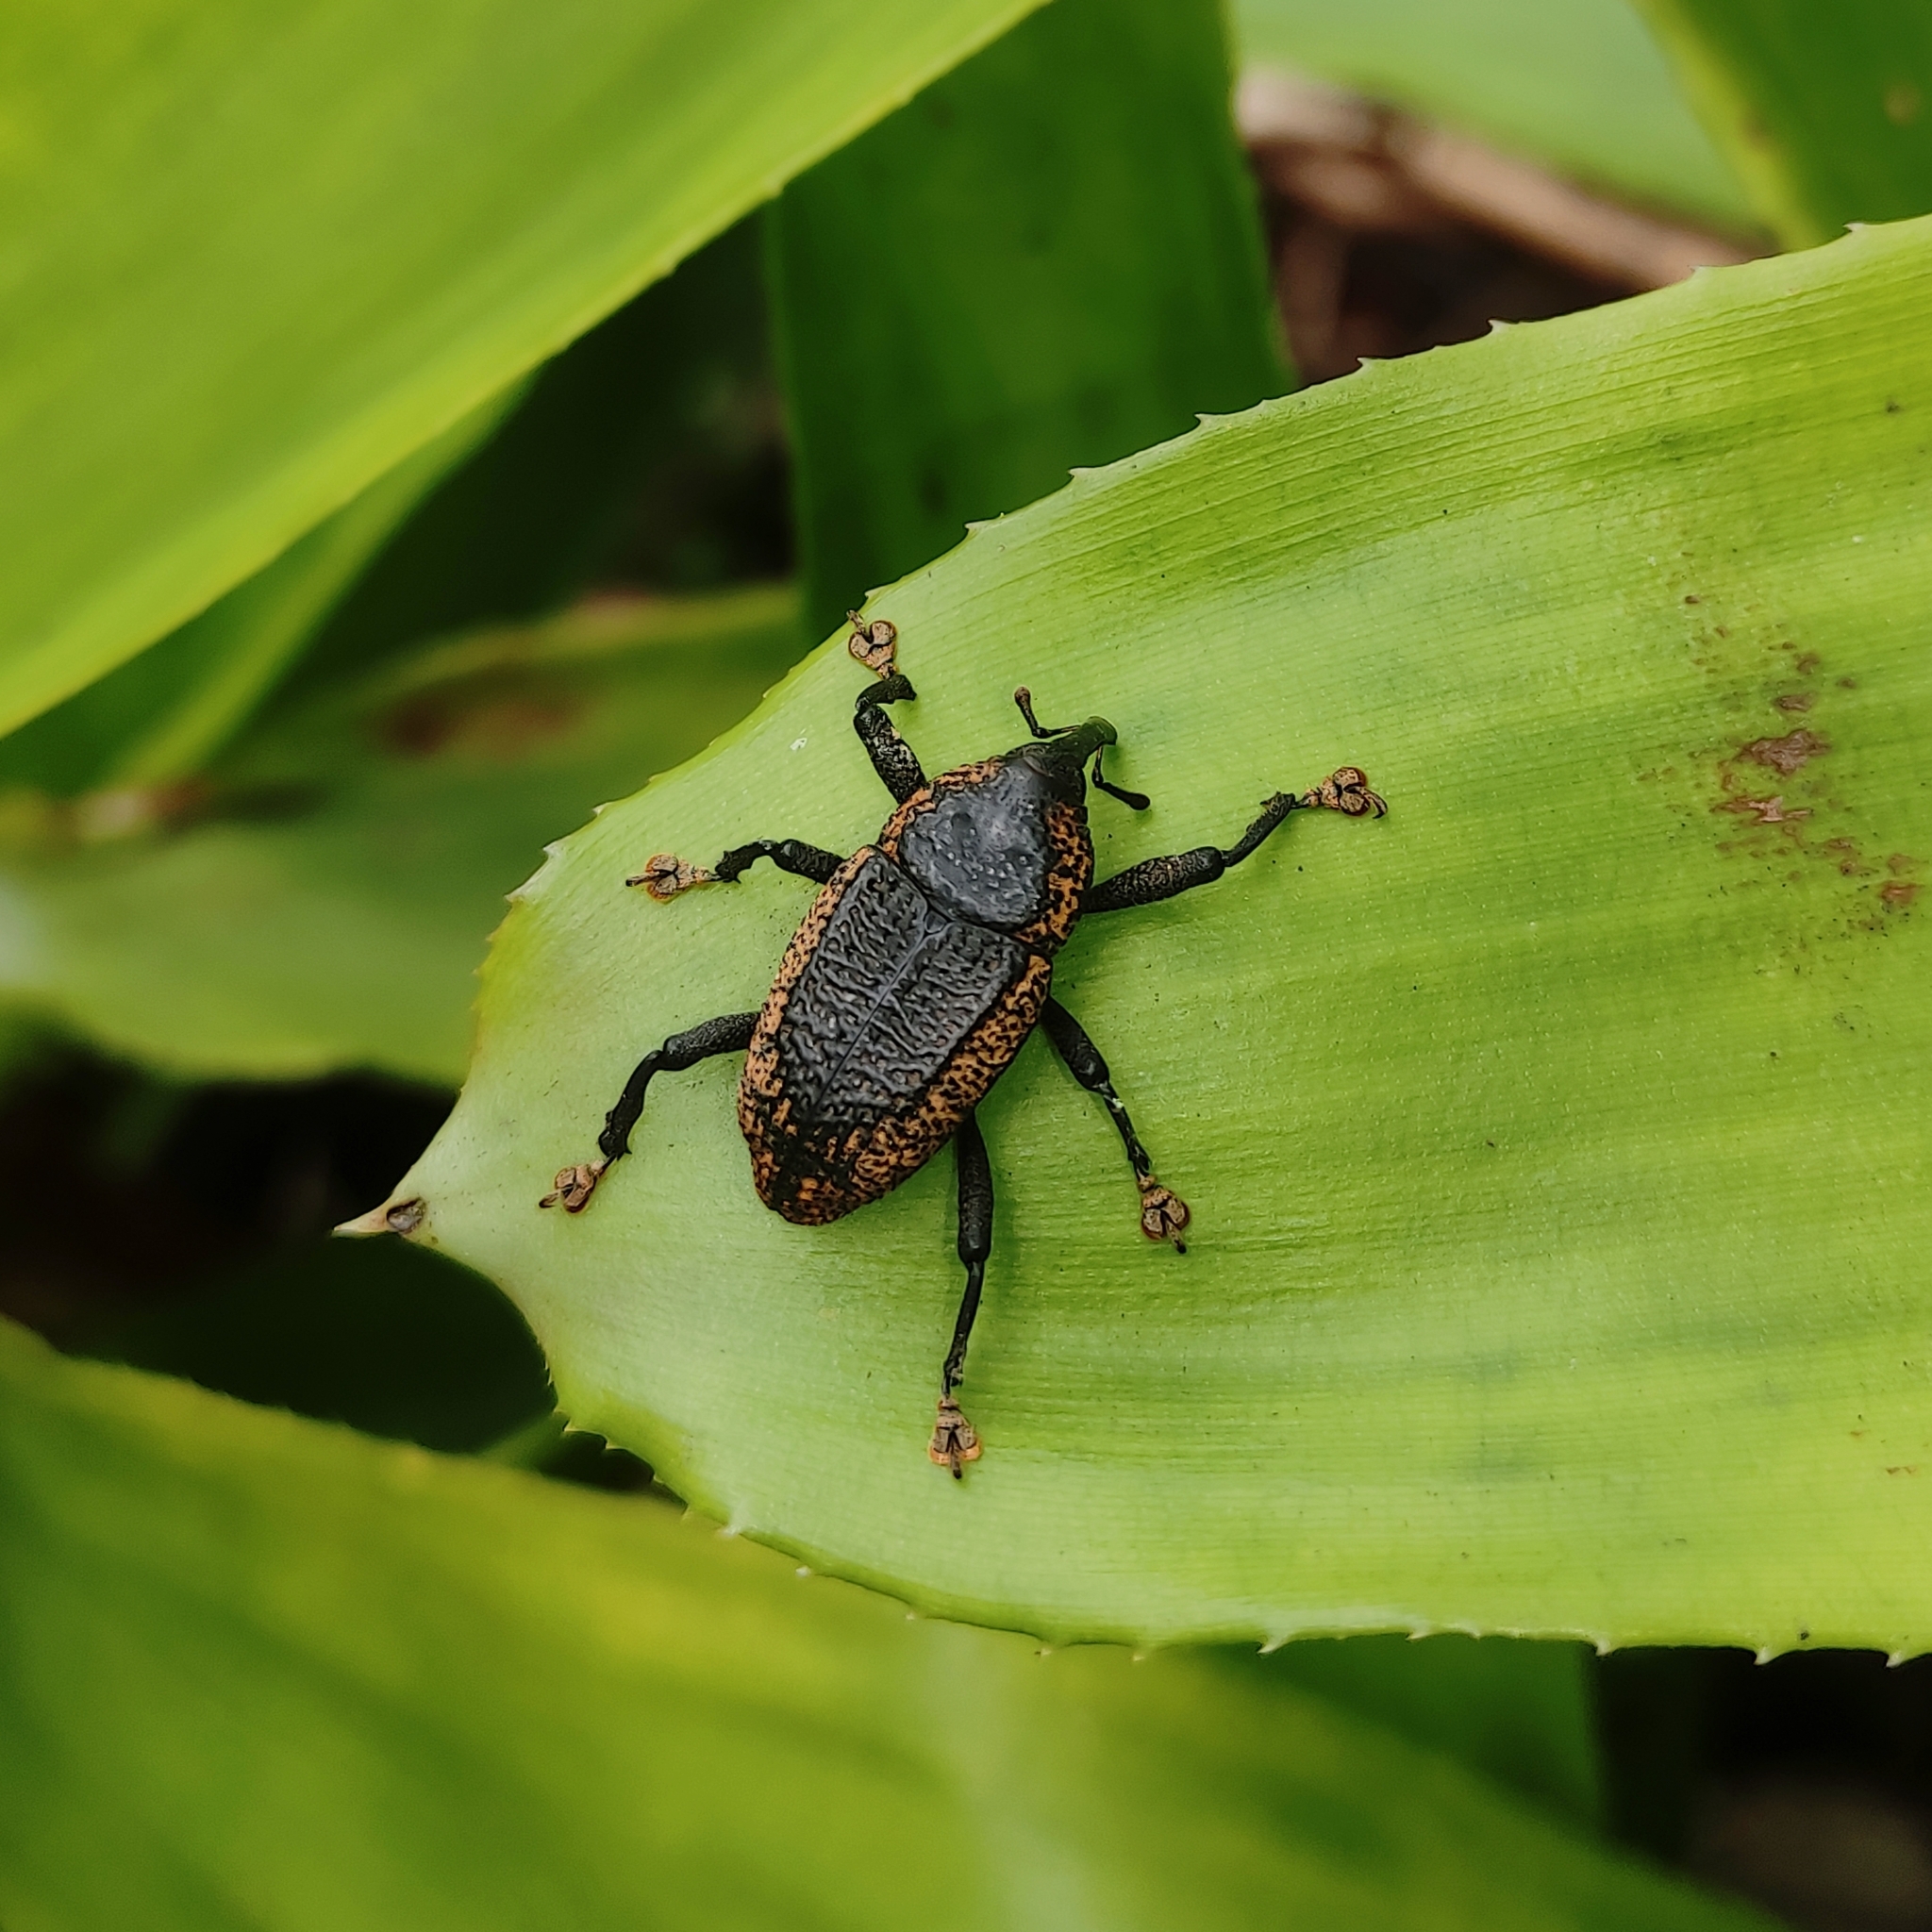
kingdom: Animalia
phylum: Arthropoda
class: Insecta
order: Coleoptera
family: Curculionidae
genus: Homalinotus
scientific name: Homalinotus deplanatus
